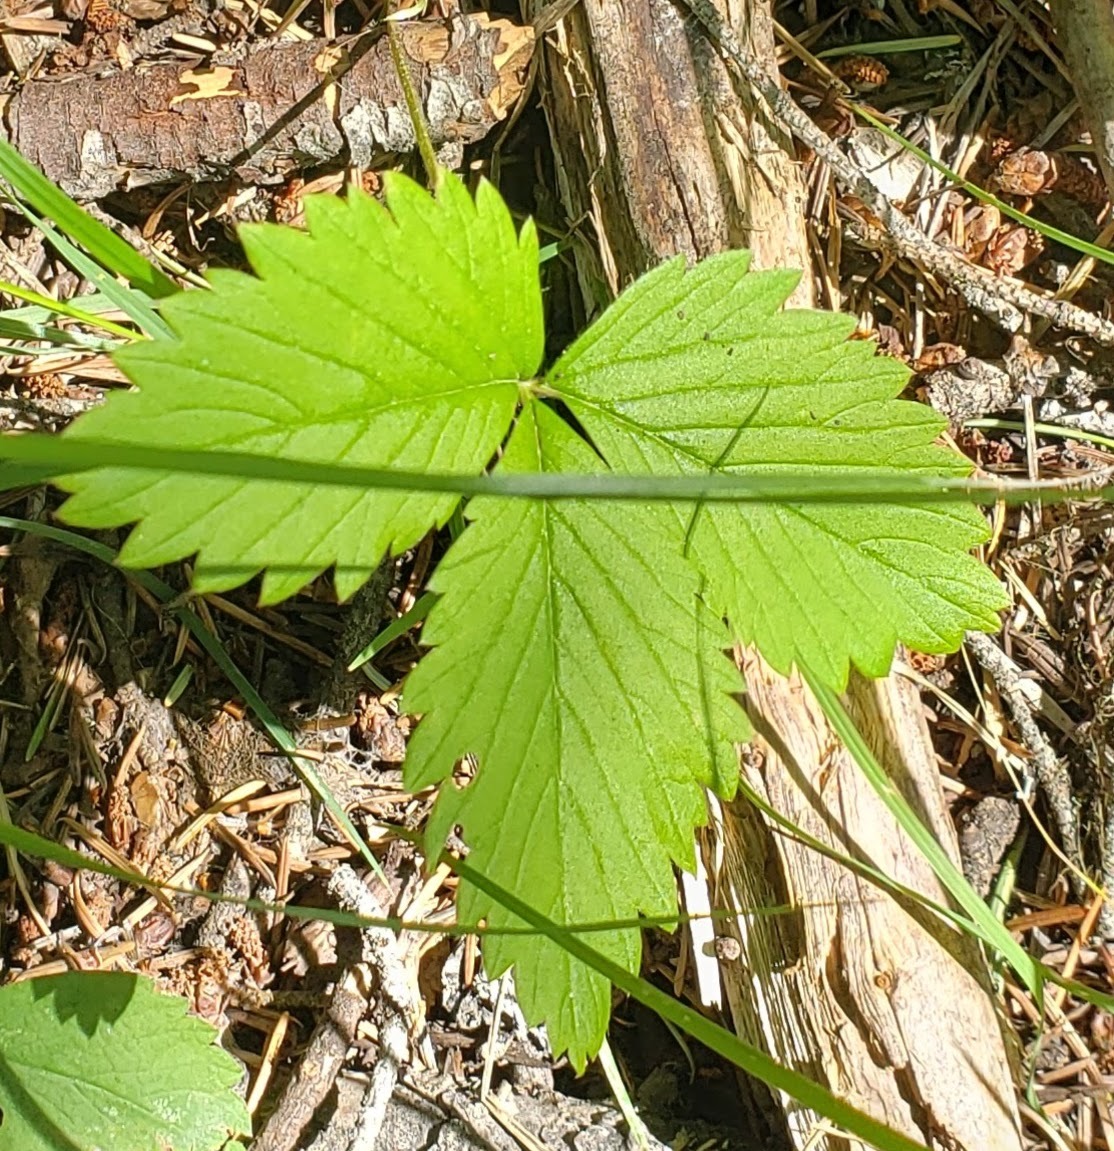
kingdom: Plantae
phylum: Tracheophyta
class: Magnoliopsida
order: Rosales
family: Rosaceae
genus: Fragaria
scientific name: Fragaria vesca
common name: Wild strawberry
